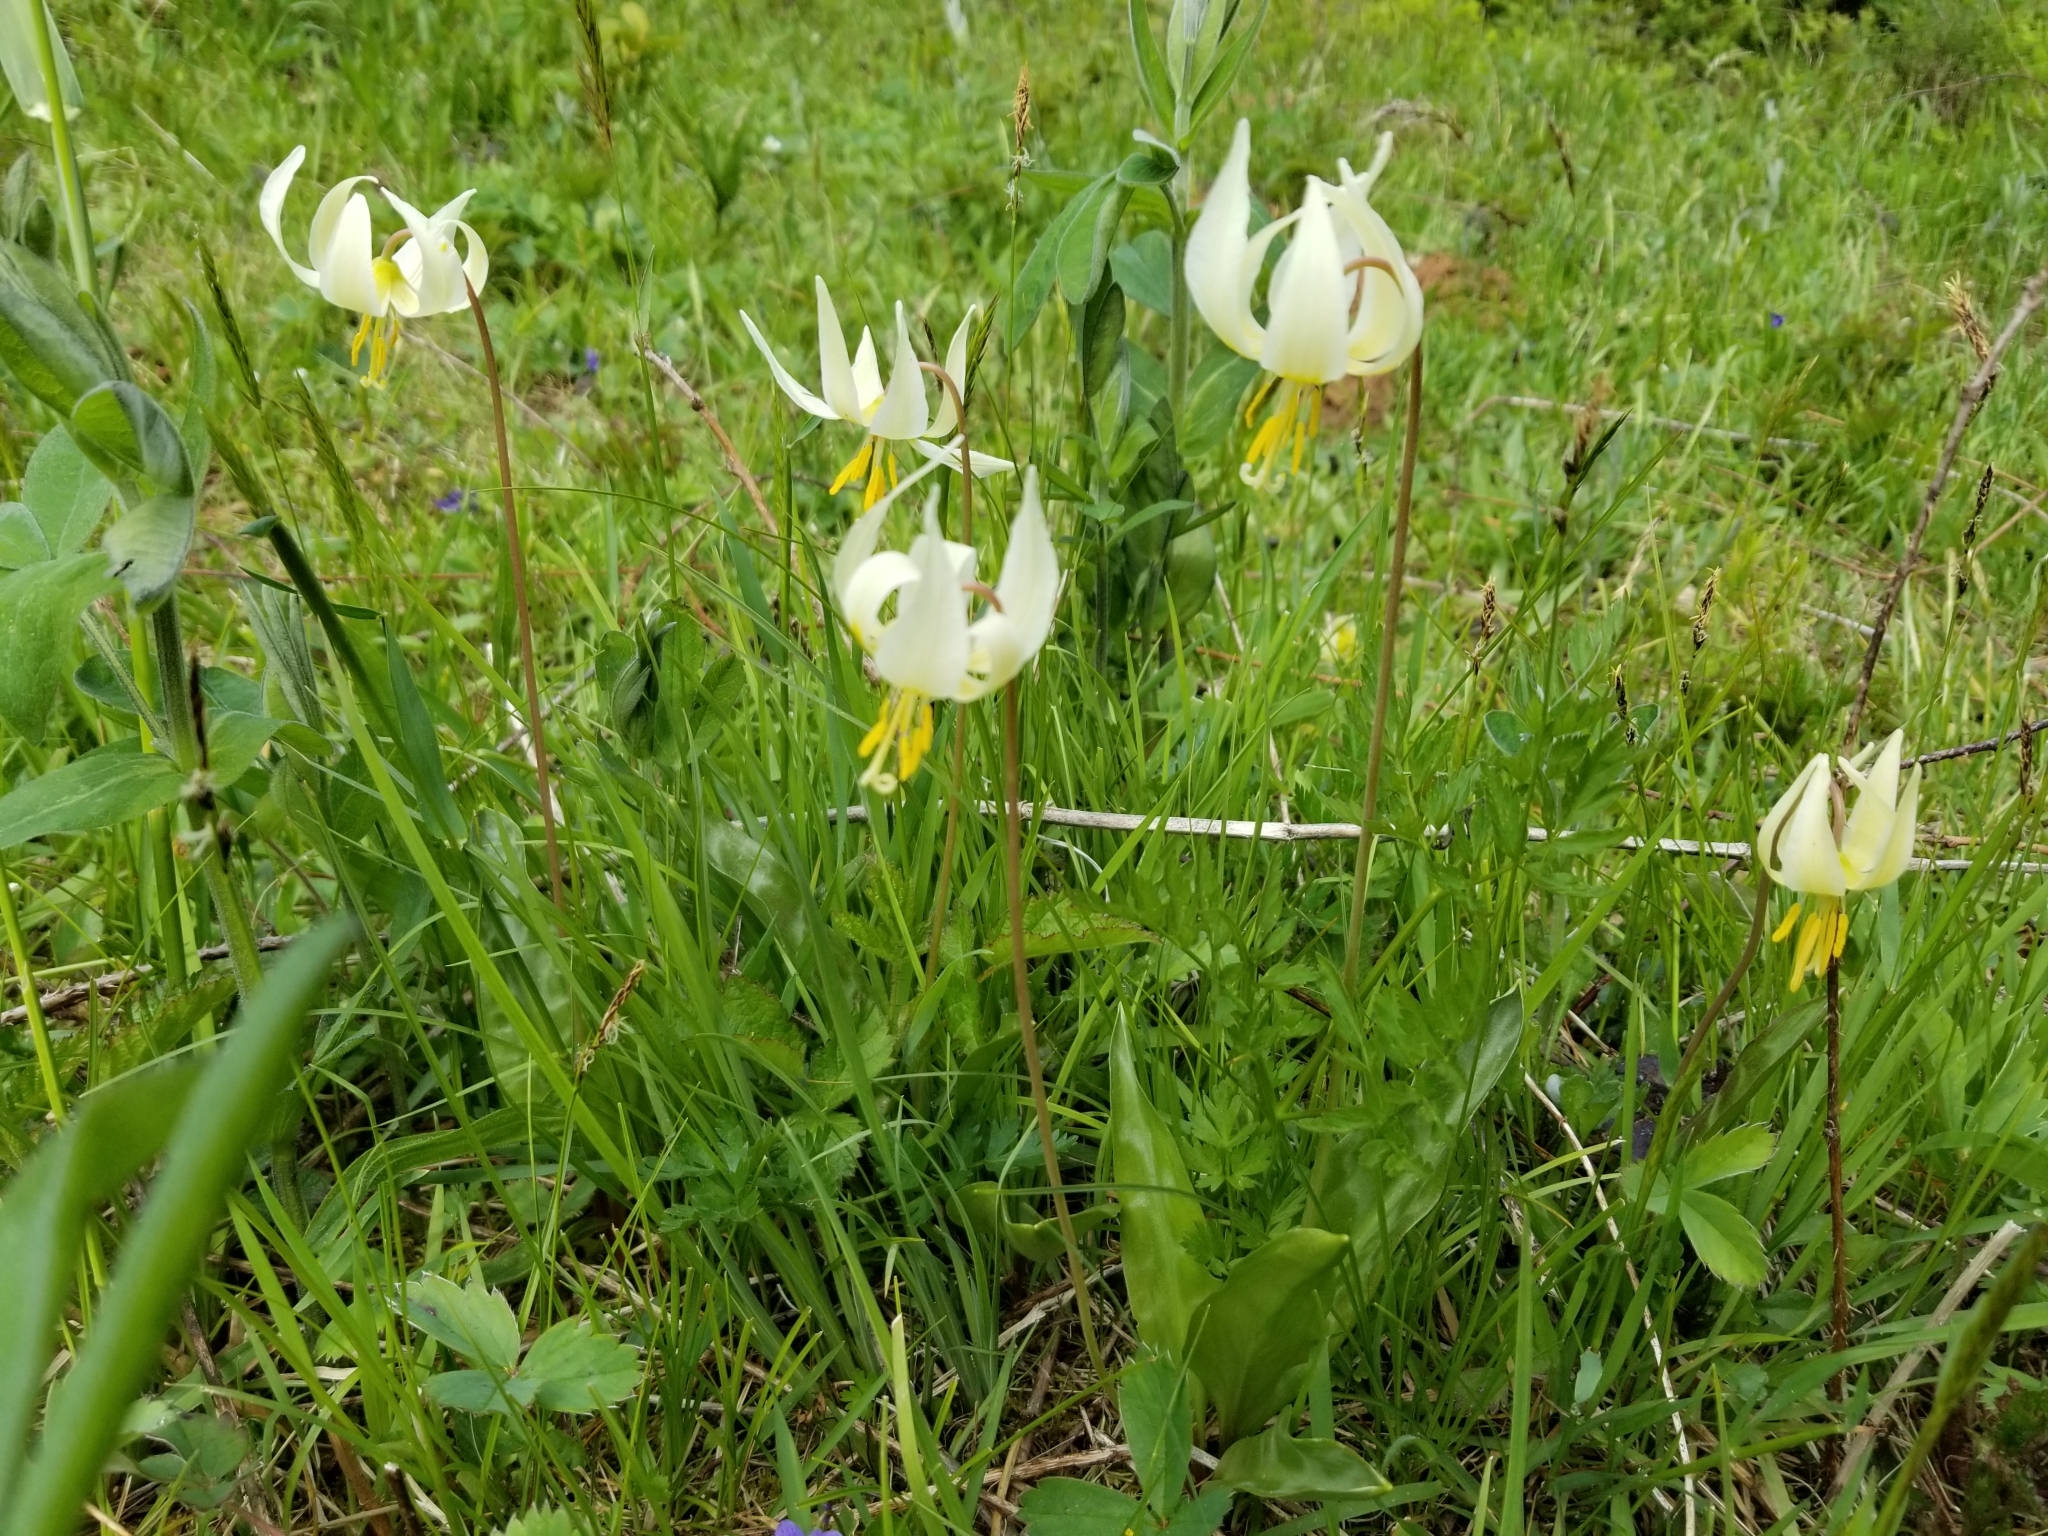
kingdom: Plantae
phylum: Tracheophyta
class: Liliopsida
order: Liliales
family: Liliaceae
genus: Erythronium
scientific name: Erythronium oregonum
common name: Giant adder's-tongue
